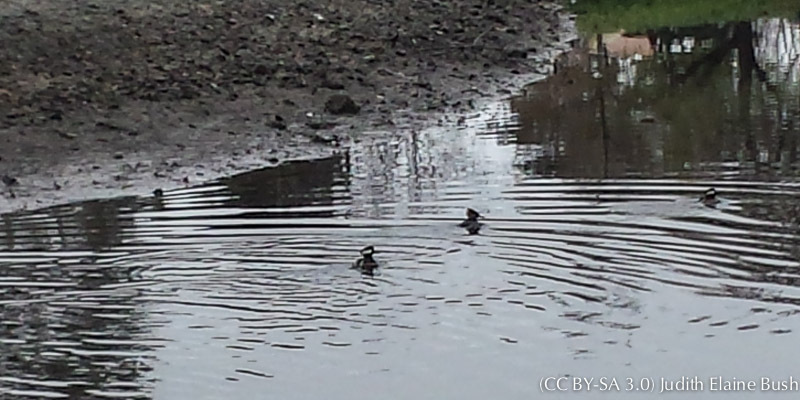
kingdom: Animalia
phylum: Chordata
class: Aves
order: Anseriformes
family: Anatidae
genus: Lophodytes
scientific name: Lophodytes cucullatus
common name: Hooded merganser
